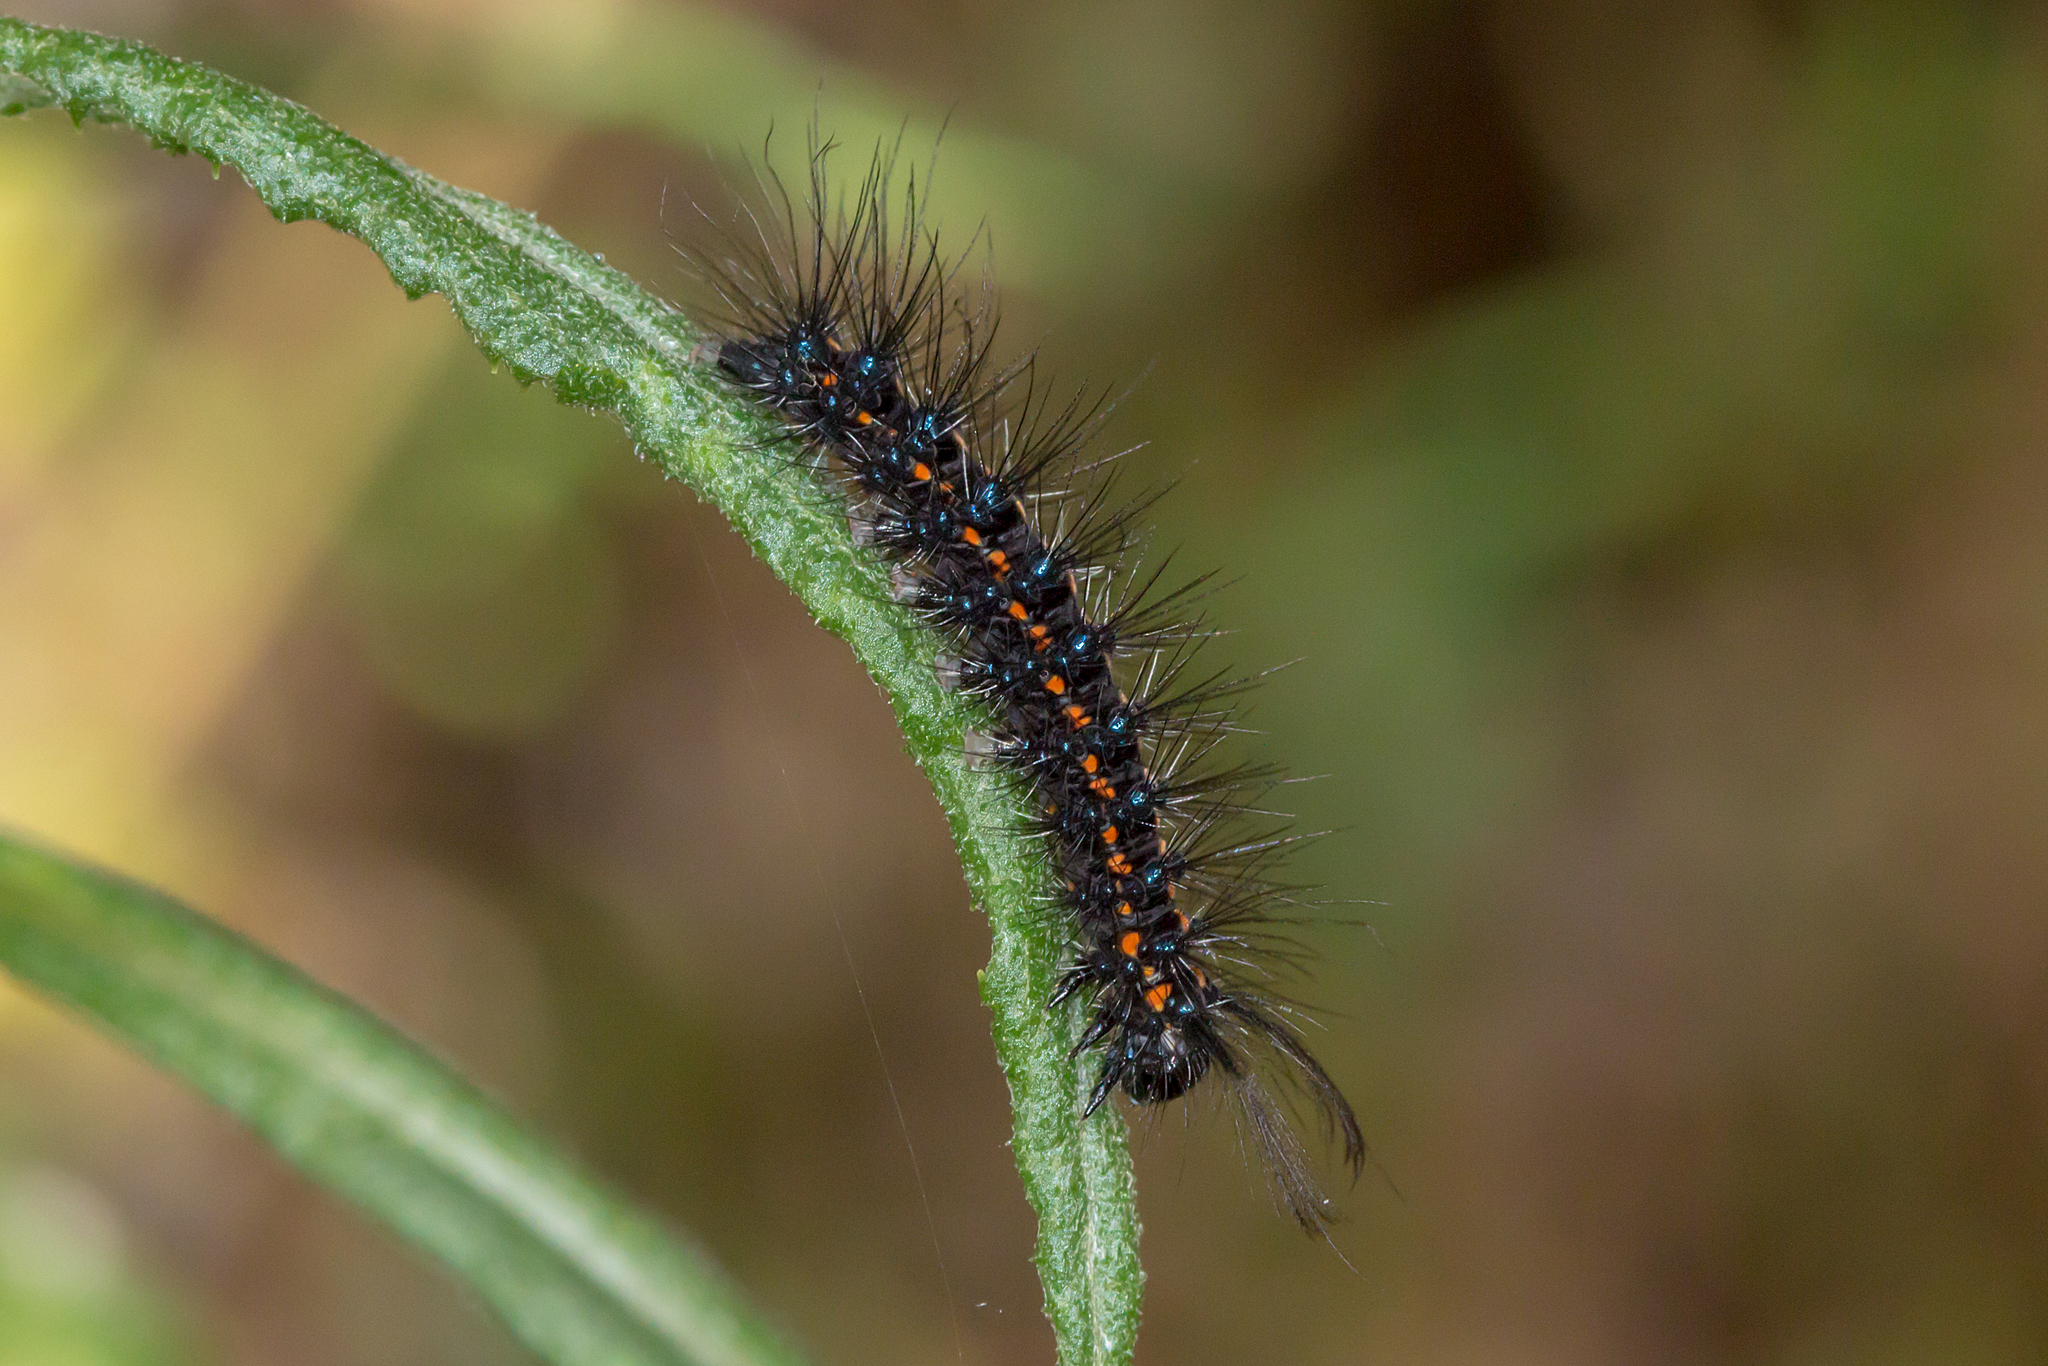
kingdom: Animalia
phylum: Arthropoda
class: Insecta
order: Lepidoptera
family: Erebidae
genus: Nyctemera
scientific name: Nyctemera amicus
